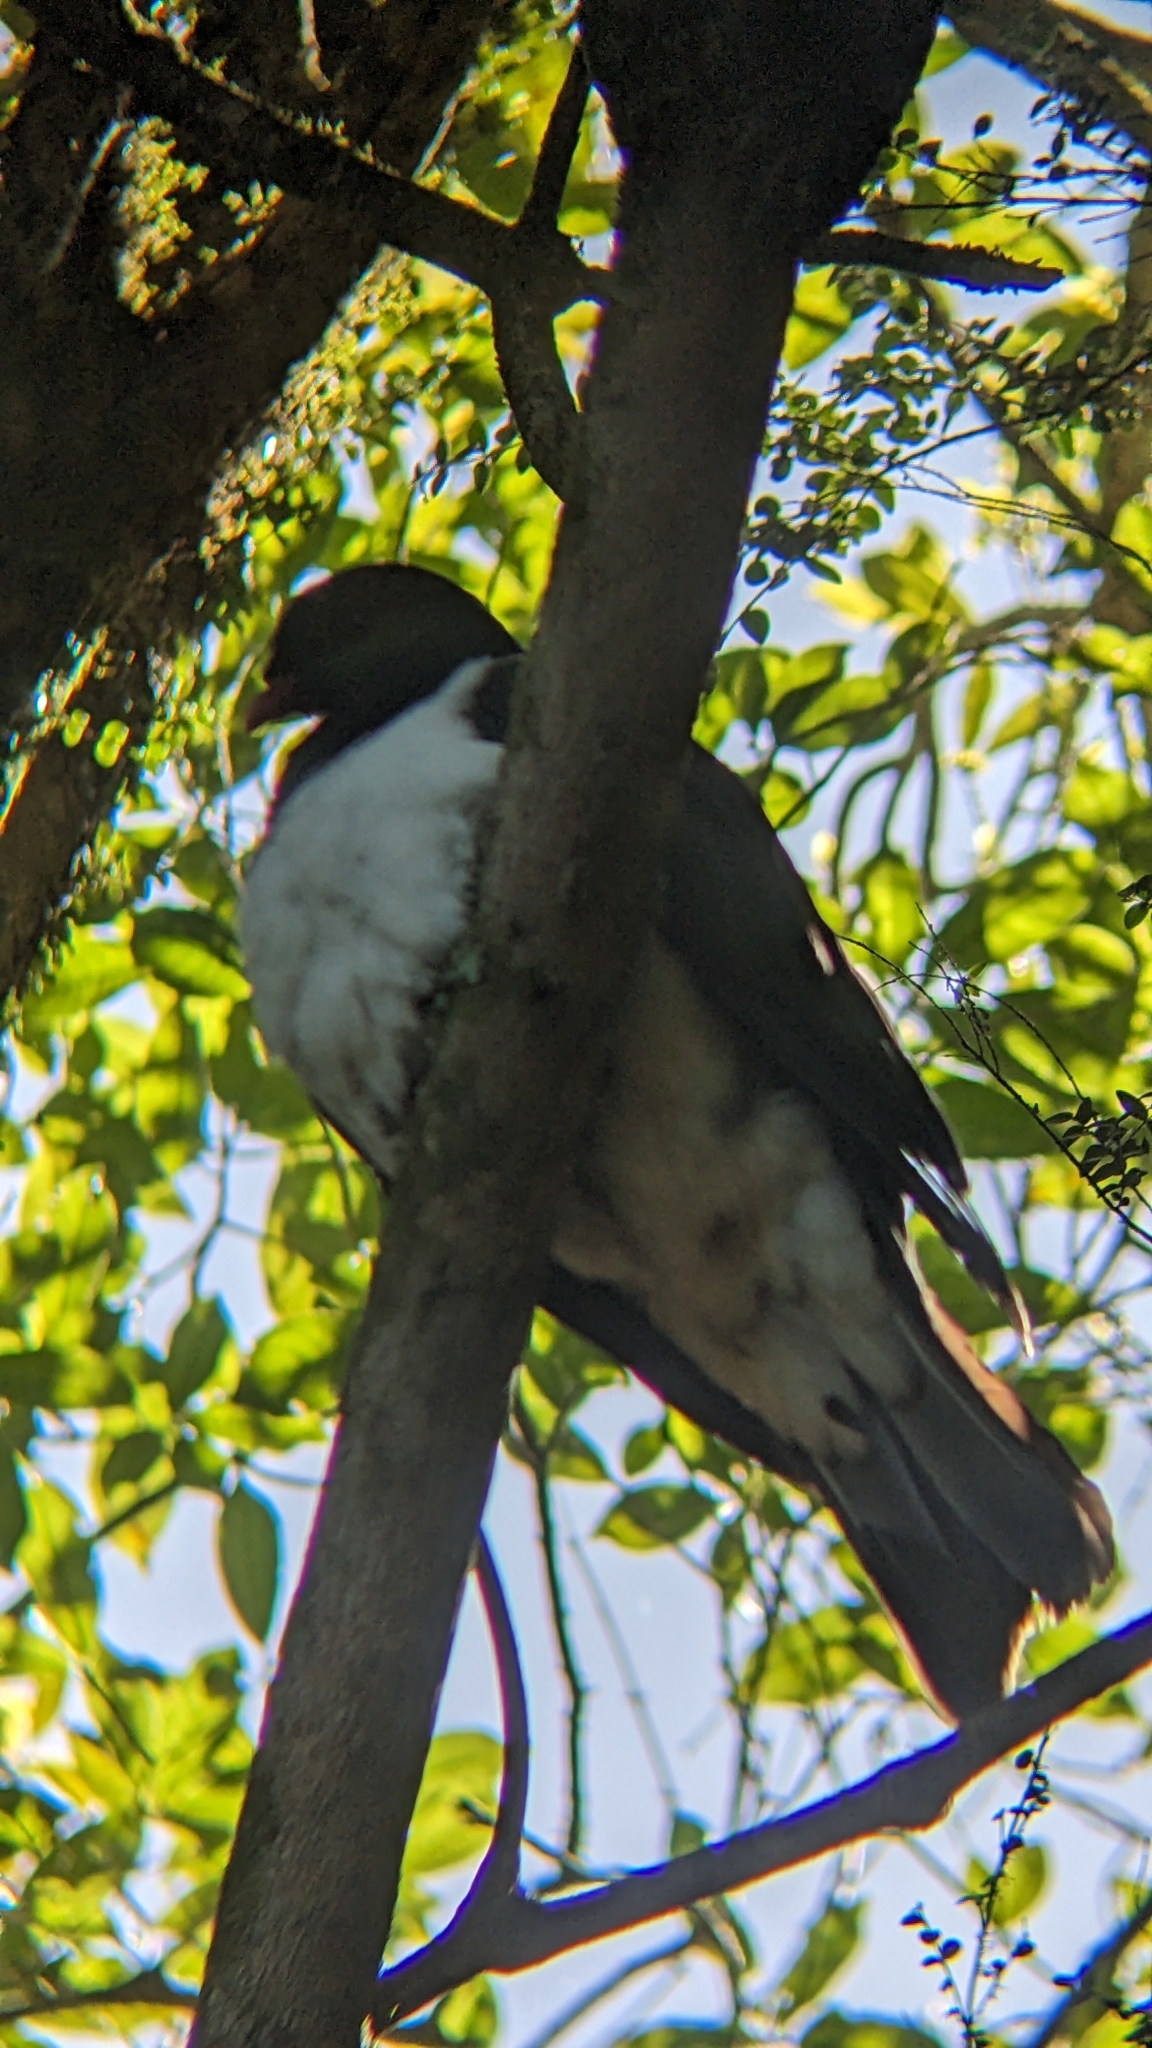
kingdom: Animalia
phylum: Chordata
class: Aves
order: Columbiformes
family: Columbidae
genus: Hemiphaga
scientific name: Hemiphaga novaeseelandiae
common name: New zealand pigeon
